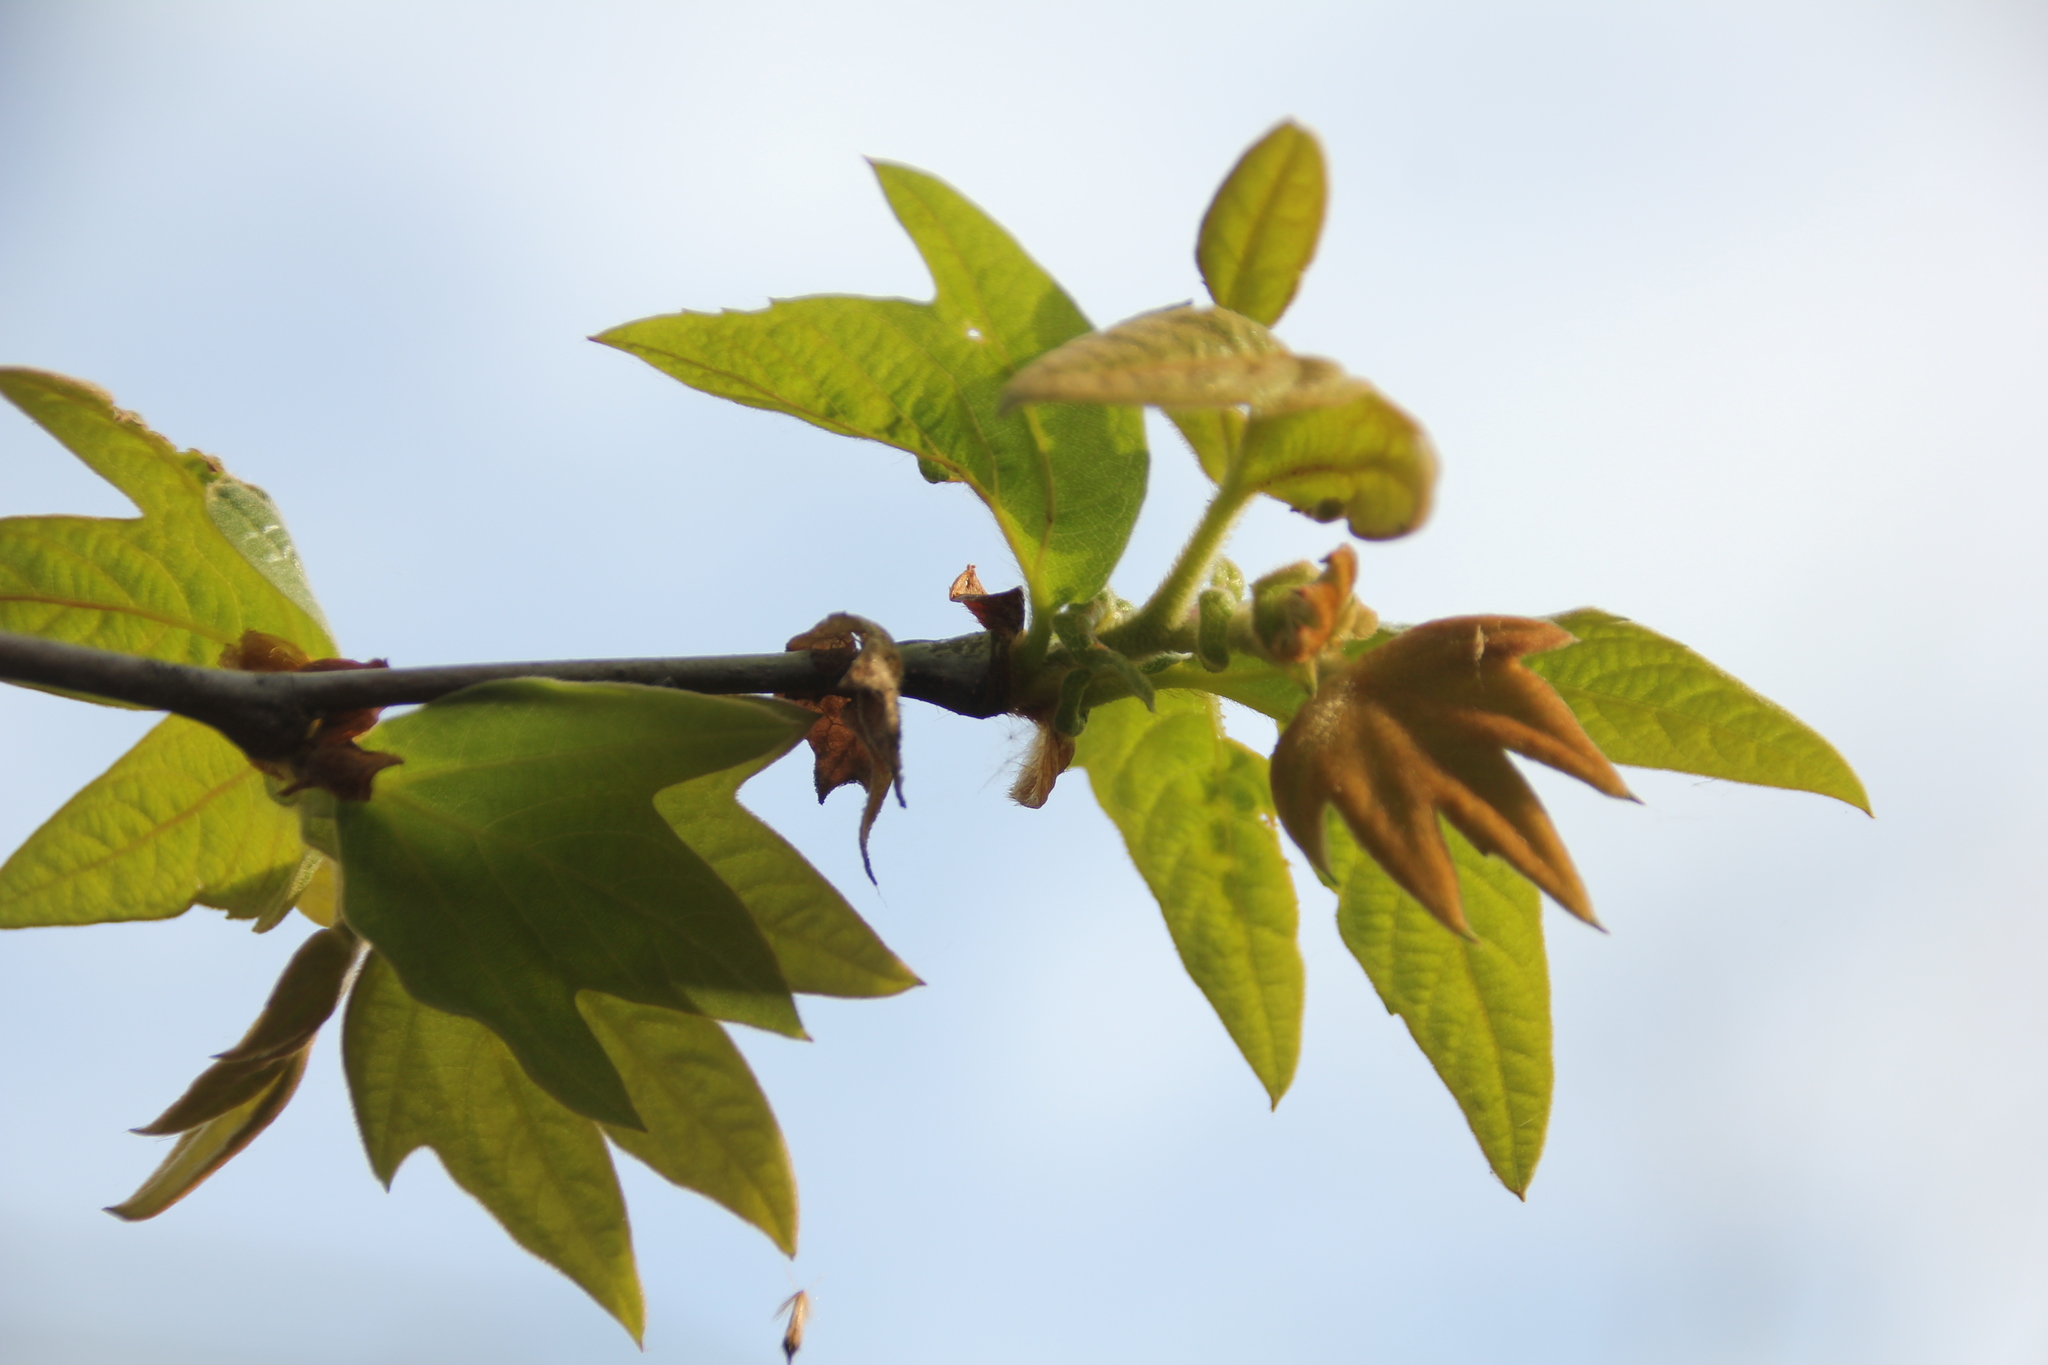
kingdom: Plantae
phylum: Tracheophyta
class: Magnoliopsida
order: Proteales
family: Platanaceae
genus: Platanus
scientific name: Platanus racemosa
